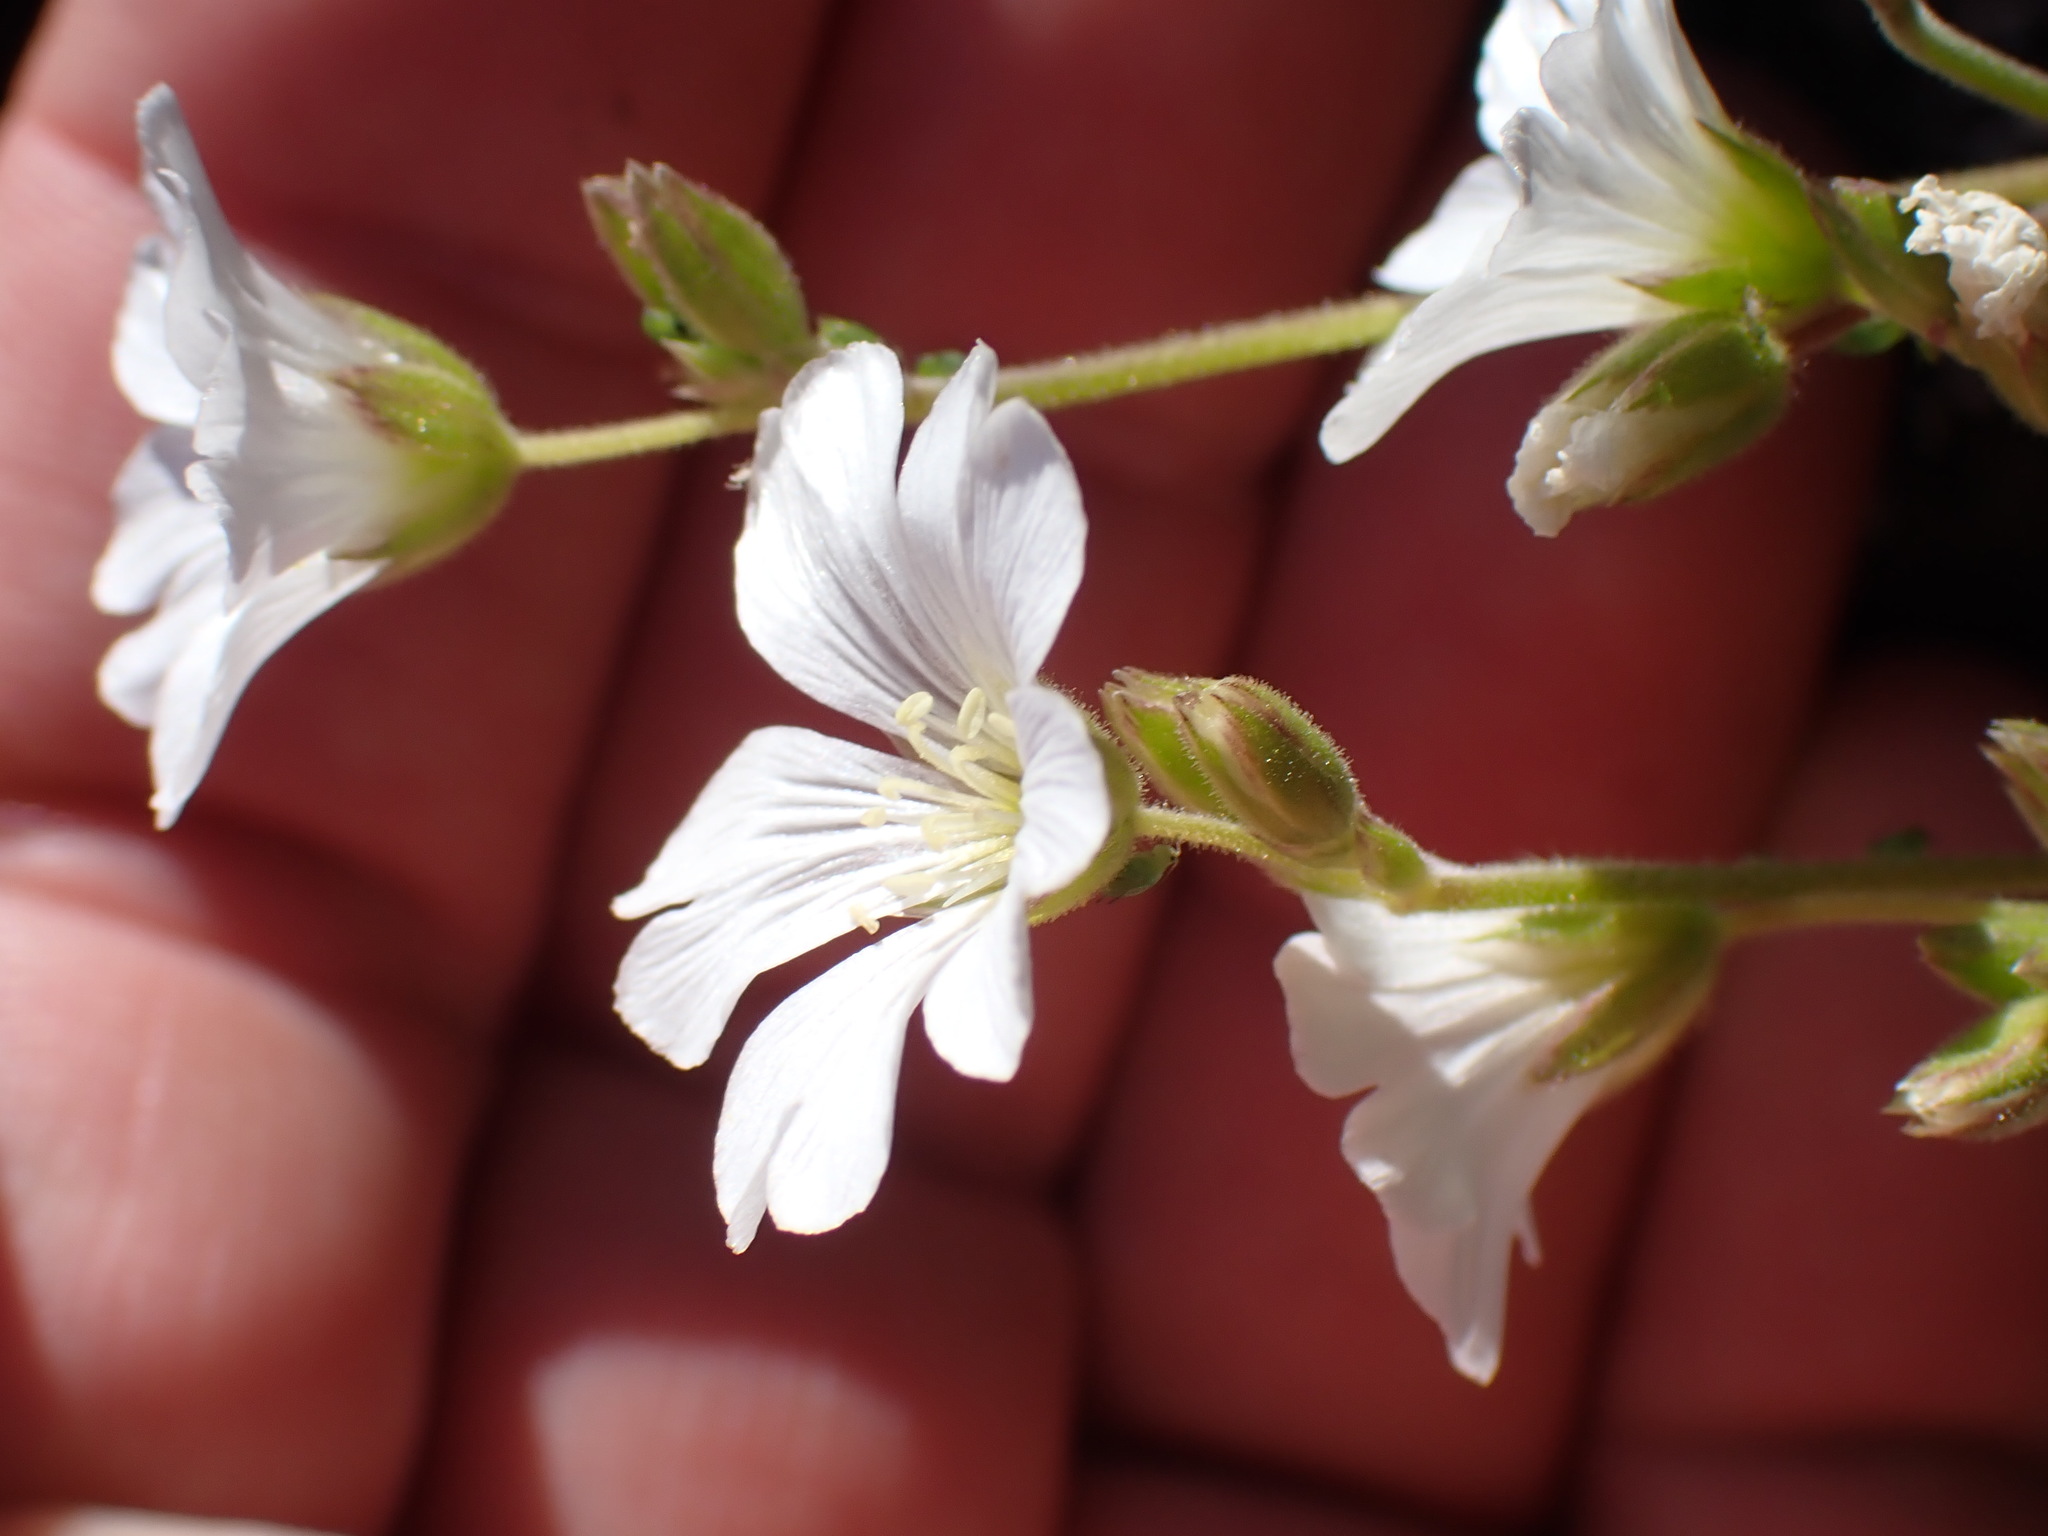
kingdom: Plantae
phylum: Tracheophyta
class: Magnoliopsida
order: Caryophyllales
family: Caryophyllaceae
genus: Cerastium
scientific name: Cerastium arvense
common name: Field mouse-ear
